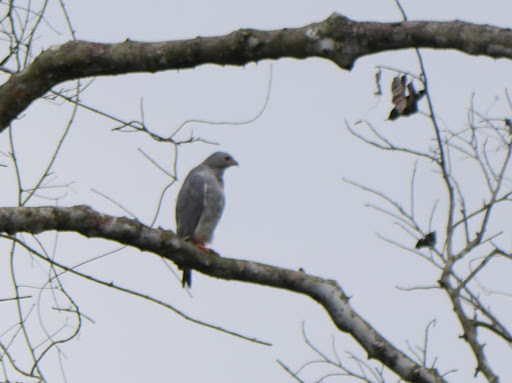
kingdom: Animalia
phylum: Chordata
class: Aves
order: Accipitriformes
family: Accipitridae
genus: Kaupifalco
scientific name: Kaupifalco monogrammicus
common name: Lizard buzzard
